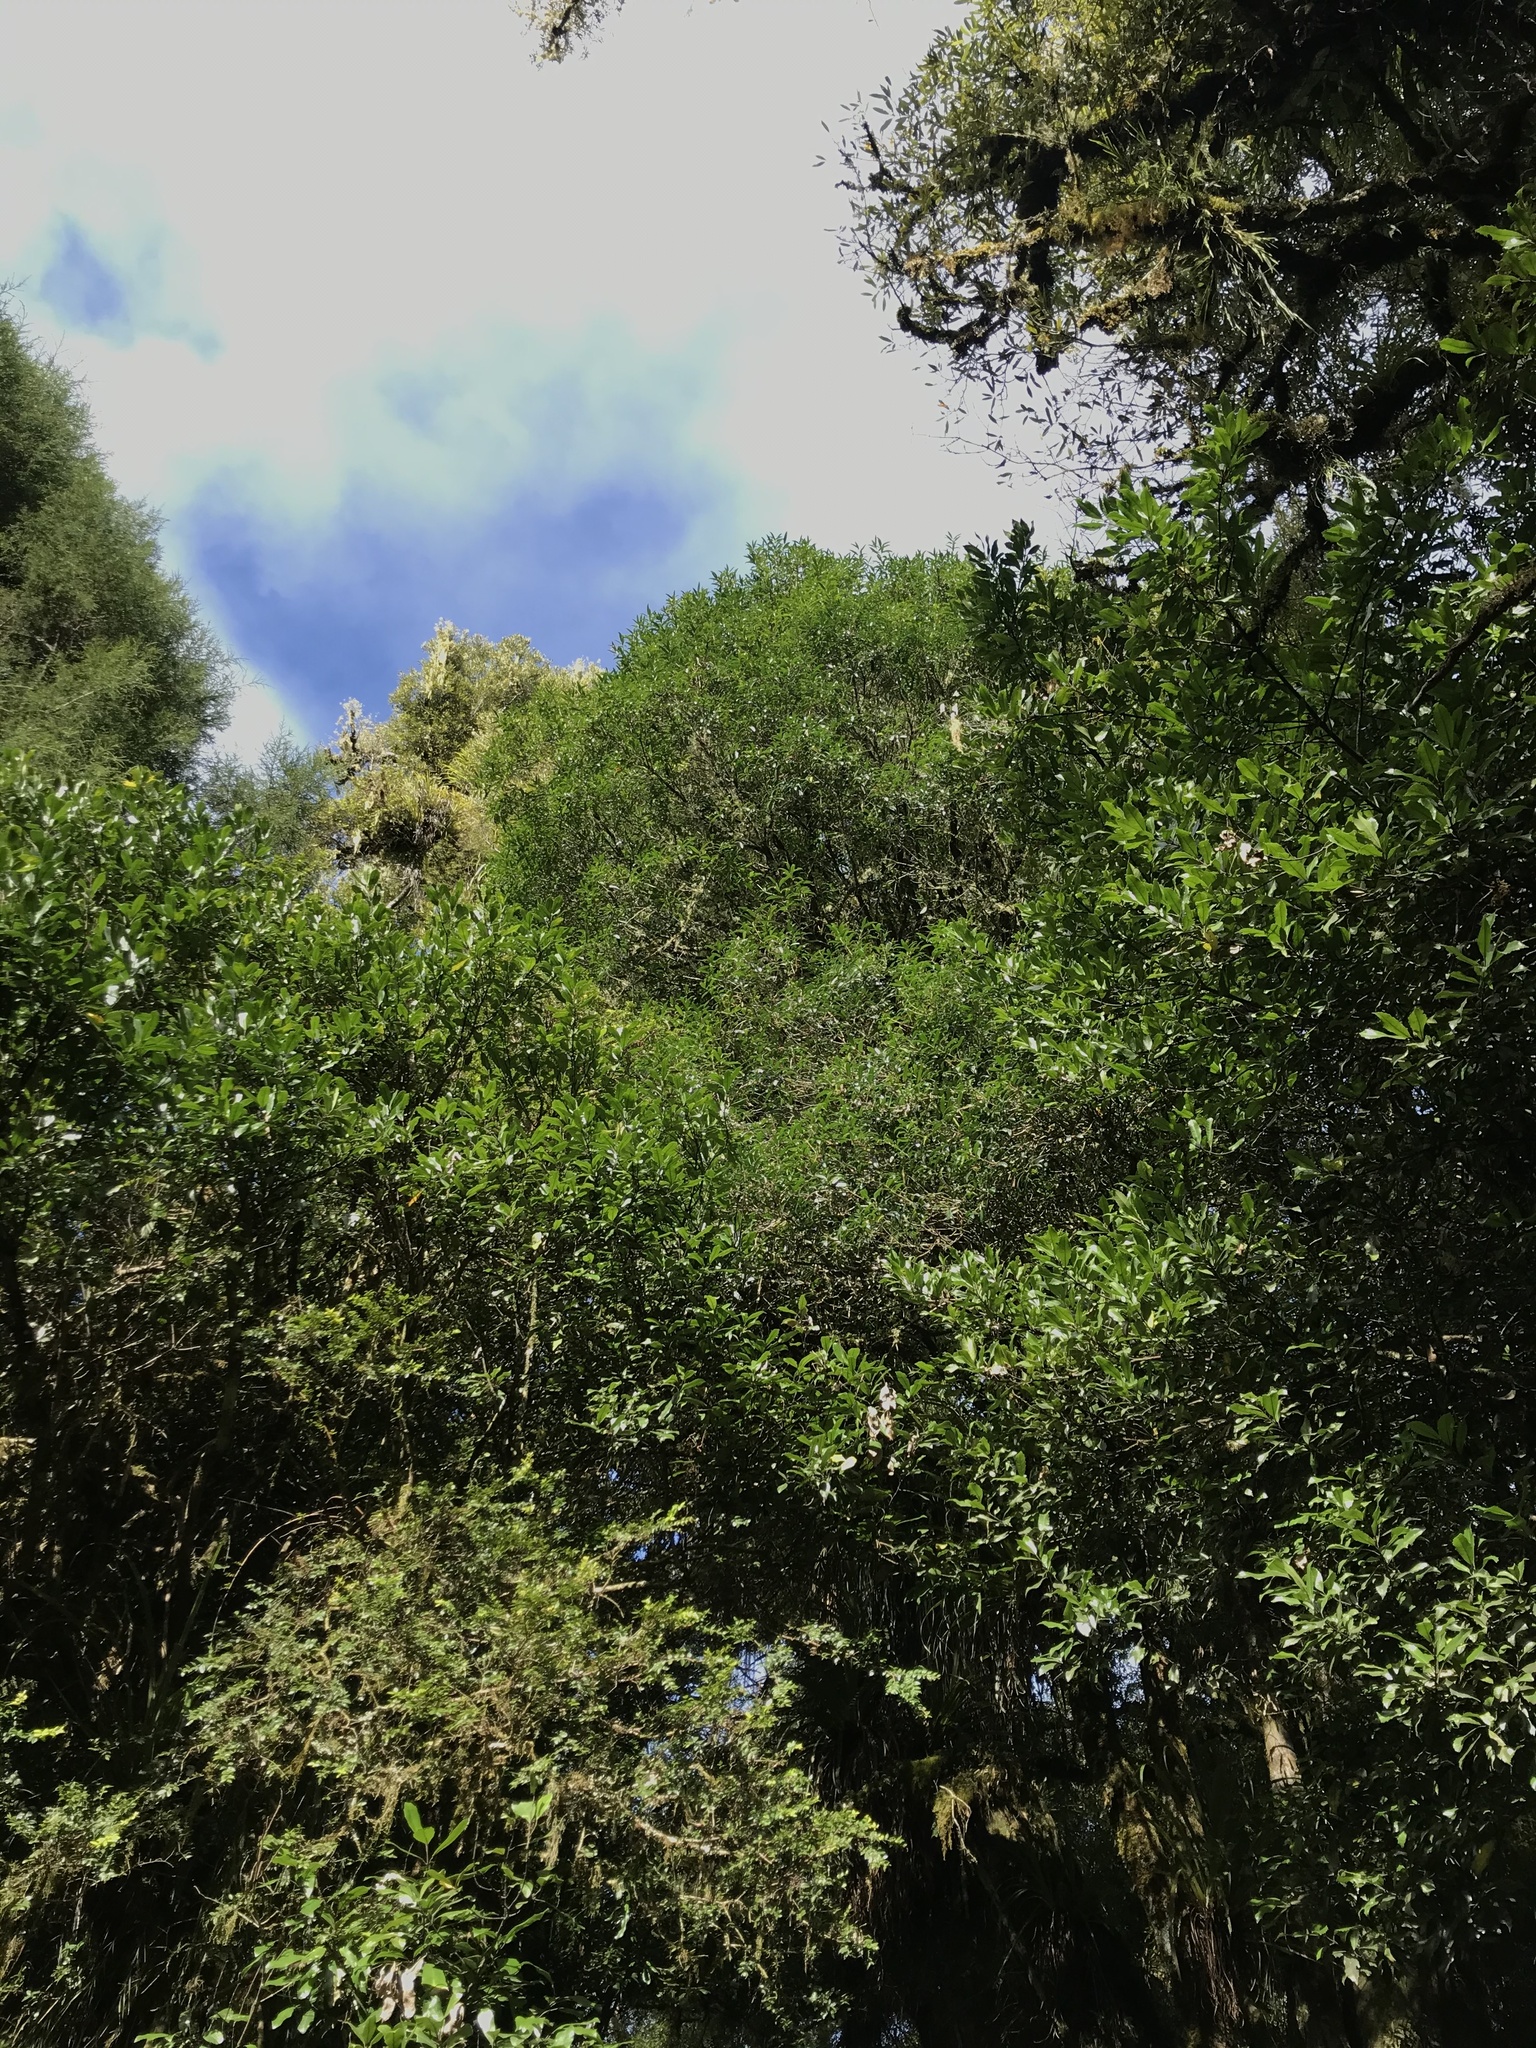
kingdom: Plantae
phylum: Tracheophyta
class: Magnoliopsida
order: Lamiales
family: Oleaceae
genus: Nestegis
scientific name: Nestegis lanceolata
